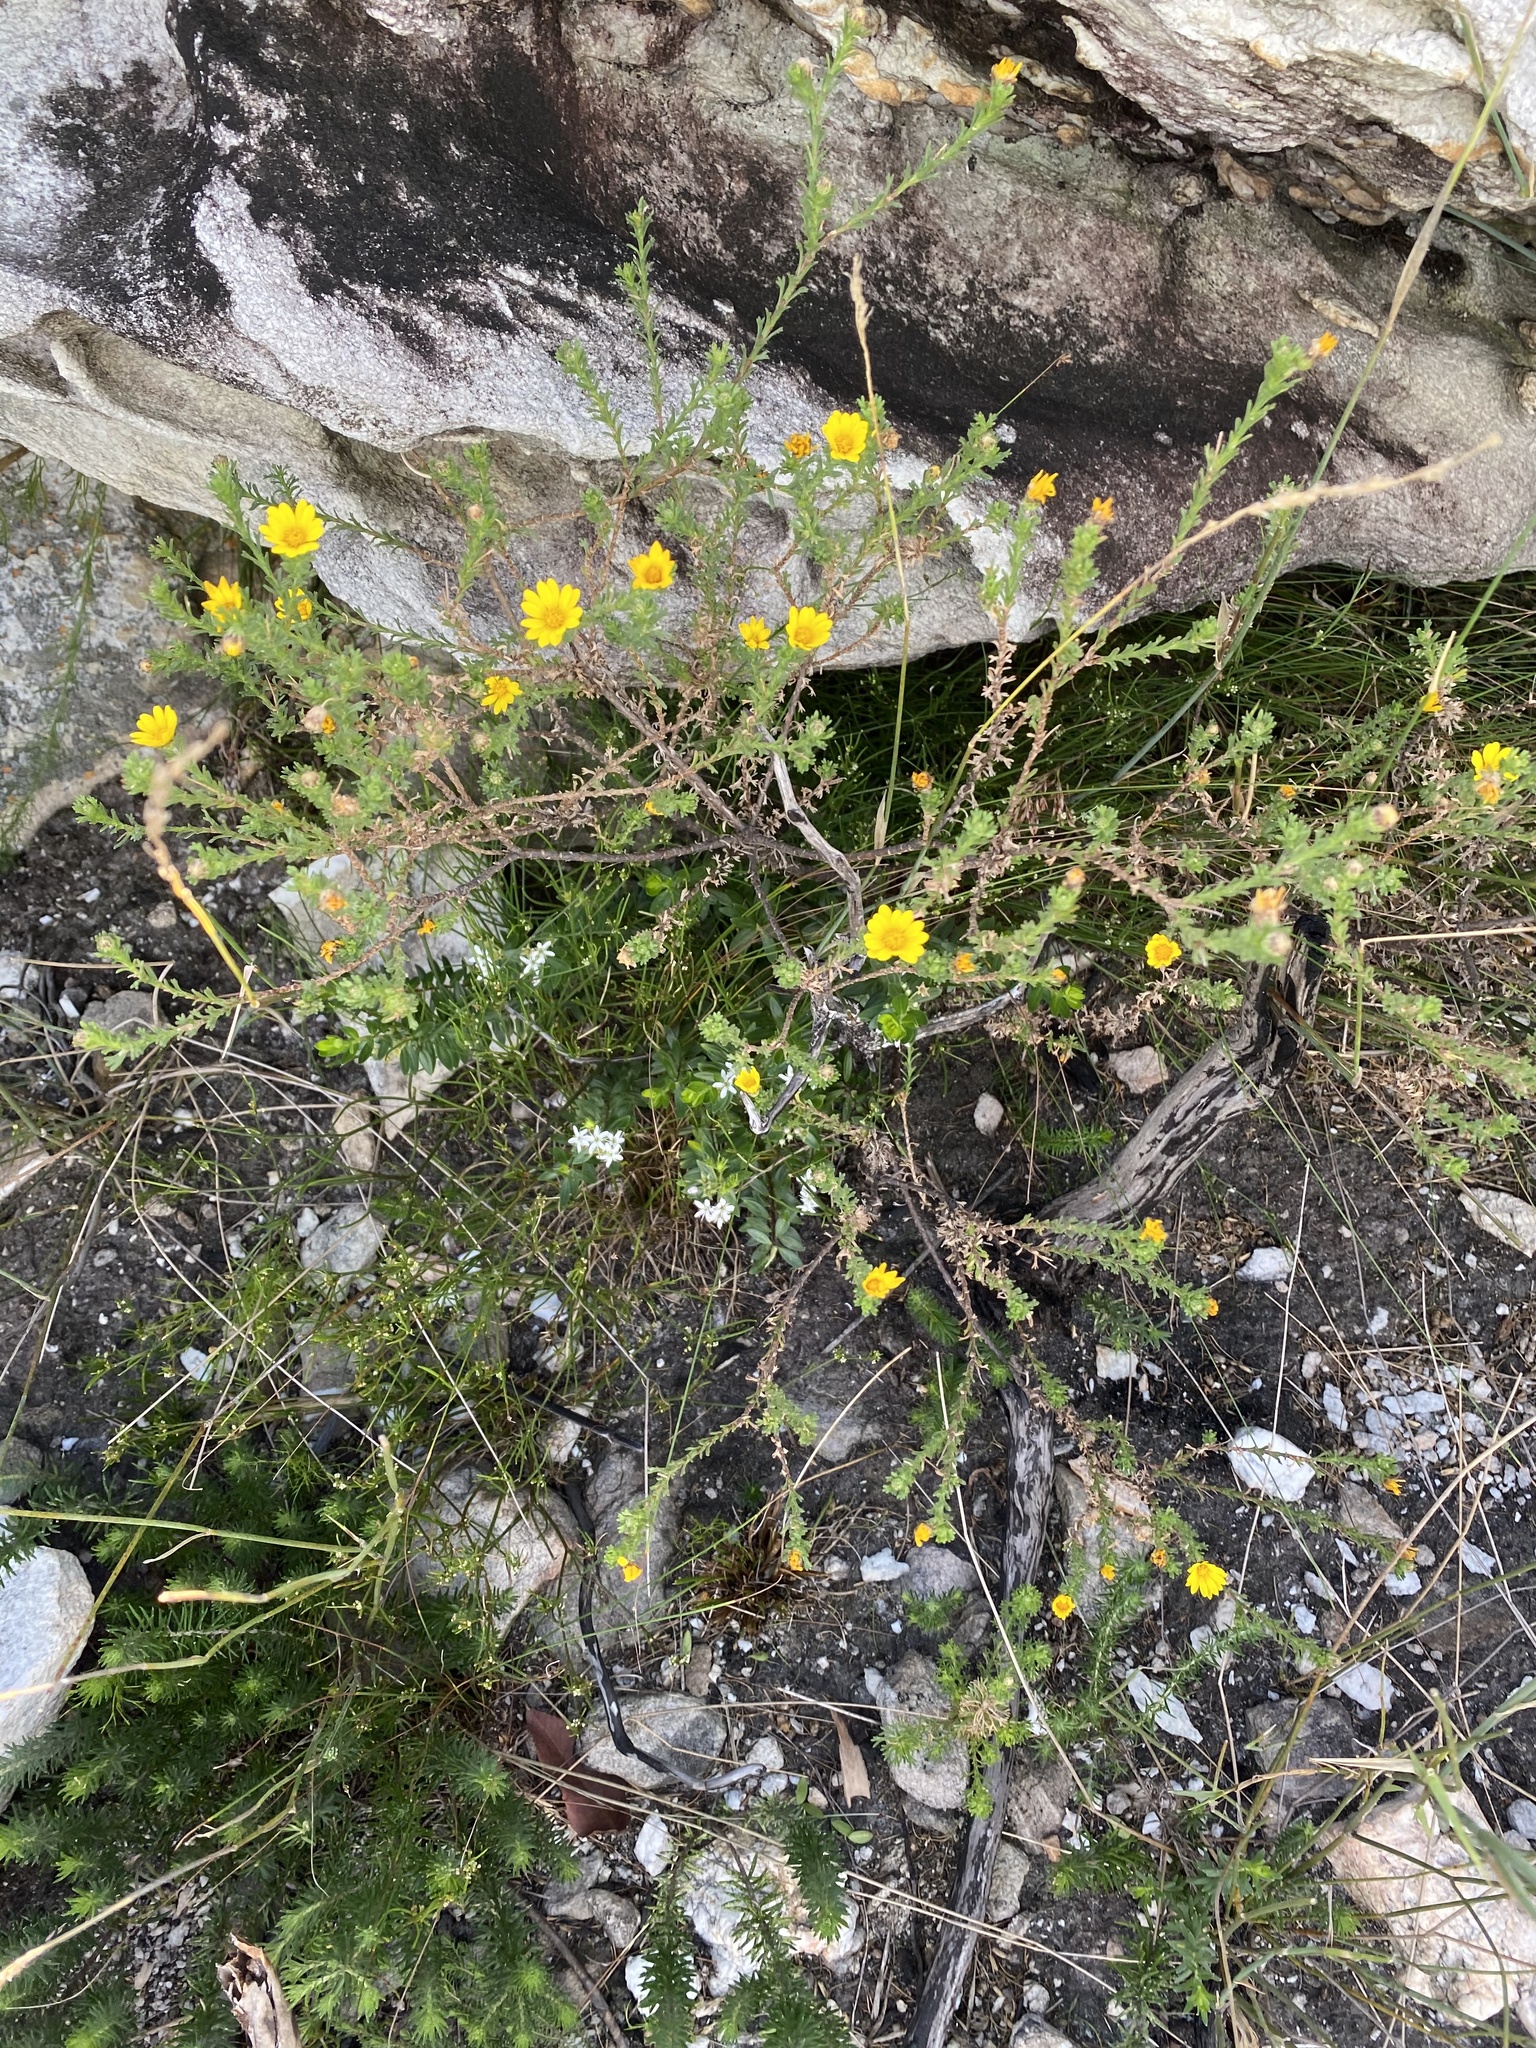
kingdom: Plantae
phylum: Tracheophyta
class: Magnoliopsida
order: Asterales
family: Asteraceae
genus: Ursinia
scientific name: Ursinia trifida
